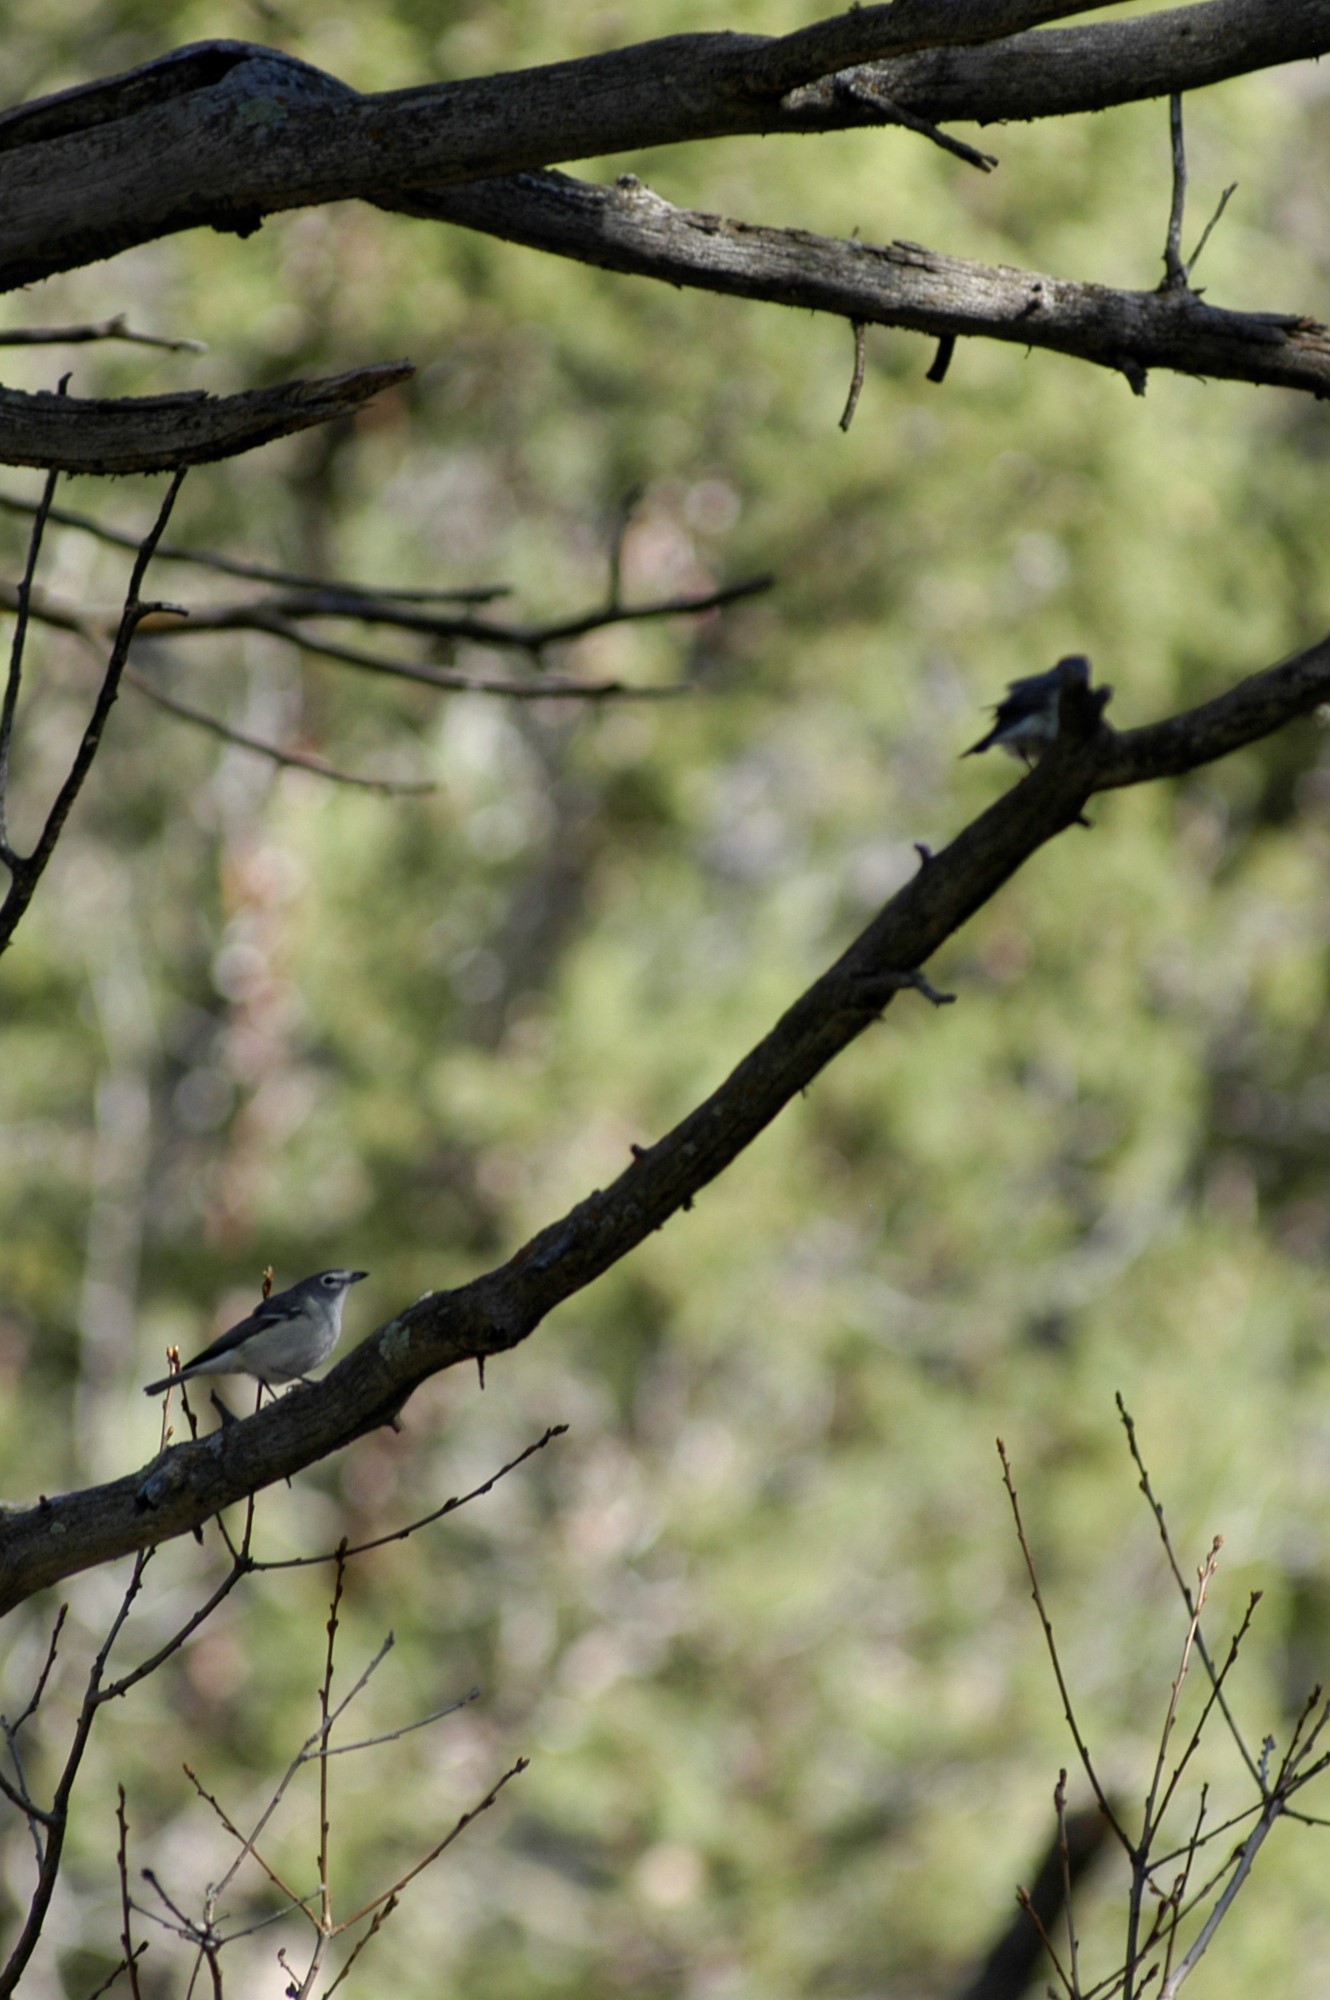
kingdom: Animalia
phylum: Chordata
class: Aves
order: Passeriformes
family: Vireonidae
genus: Vireo
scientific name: Vireo plumbeus
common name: Plumbeous vireo
